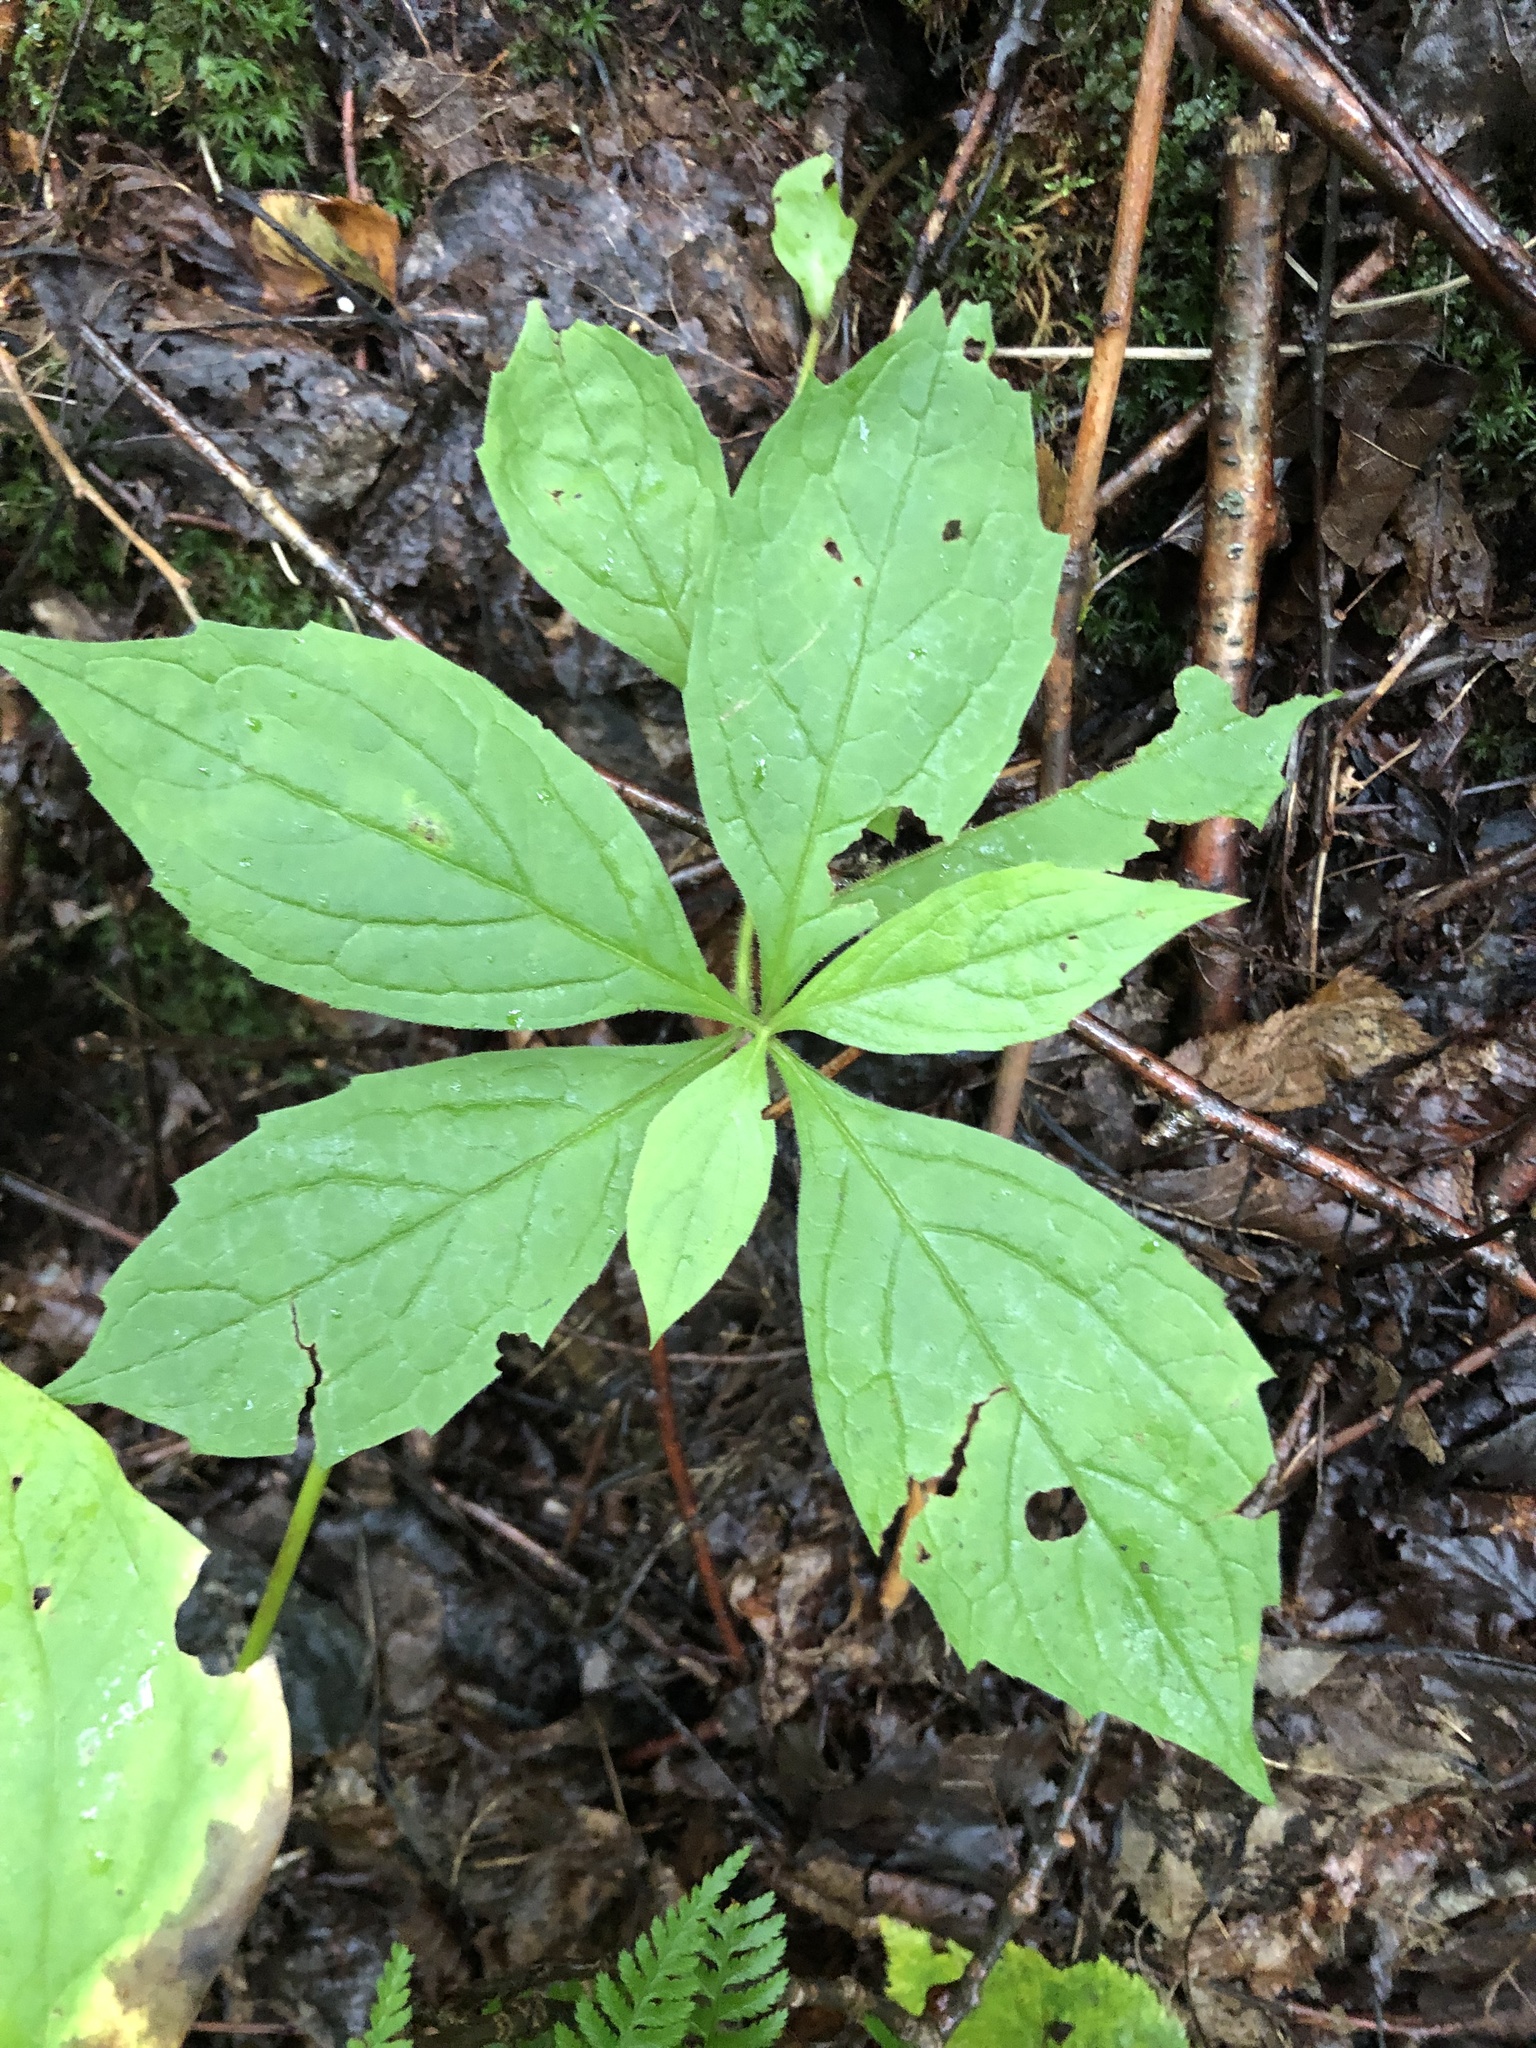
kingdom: Plantae
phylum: Tracheophyta
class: Magnoliopsida
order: Asterales
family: Asteraceae
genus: Oclemena
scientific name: Oclemena acuminata
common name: Mountain aster
